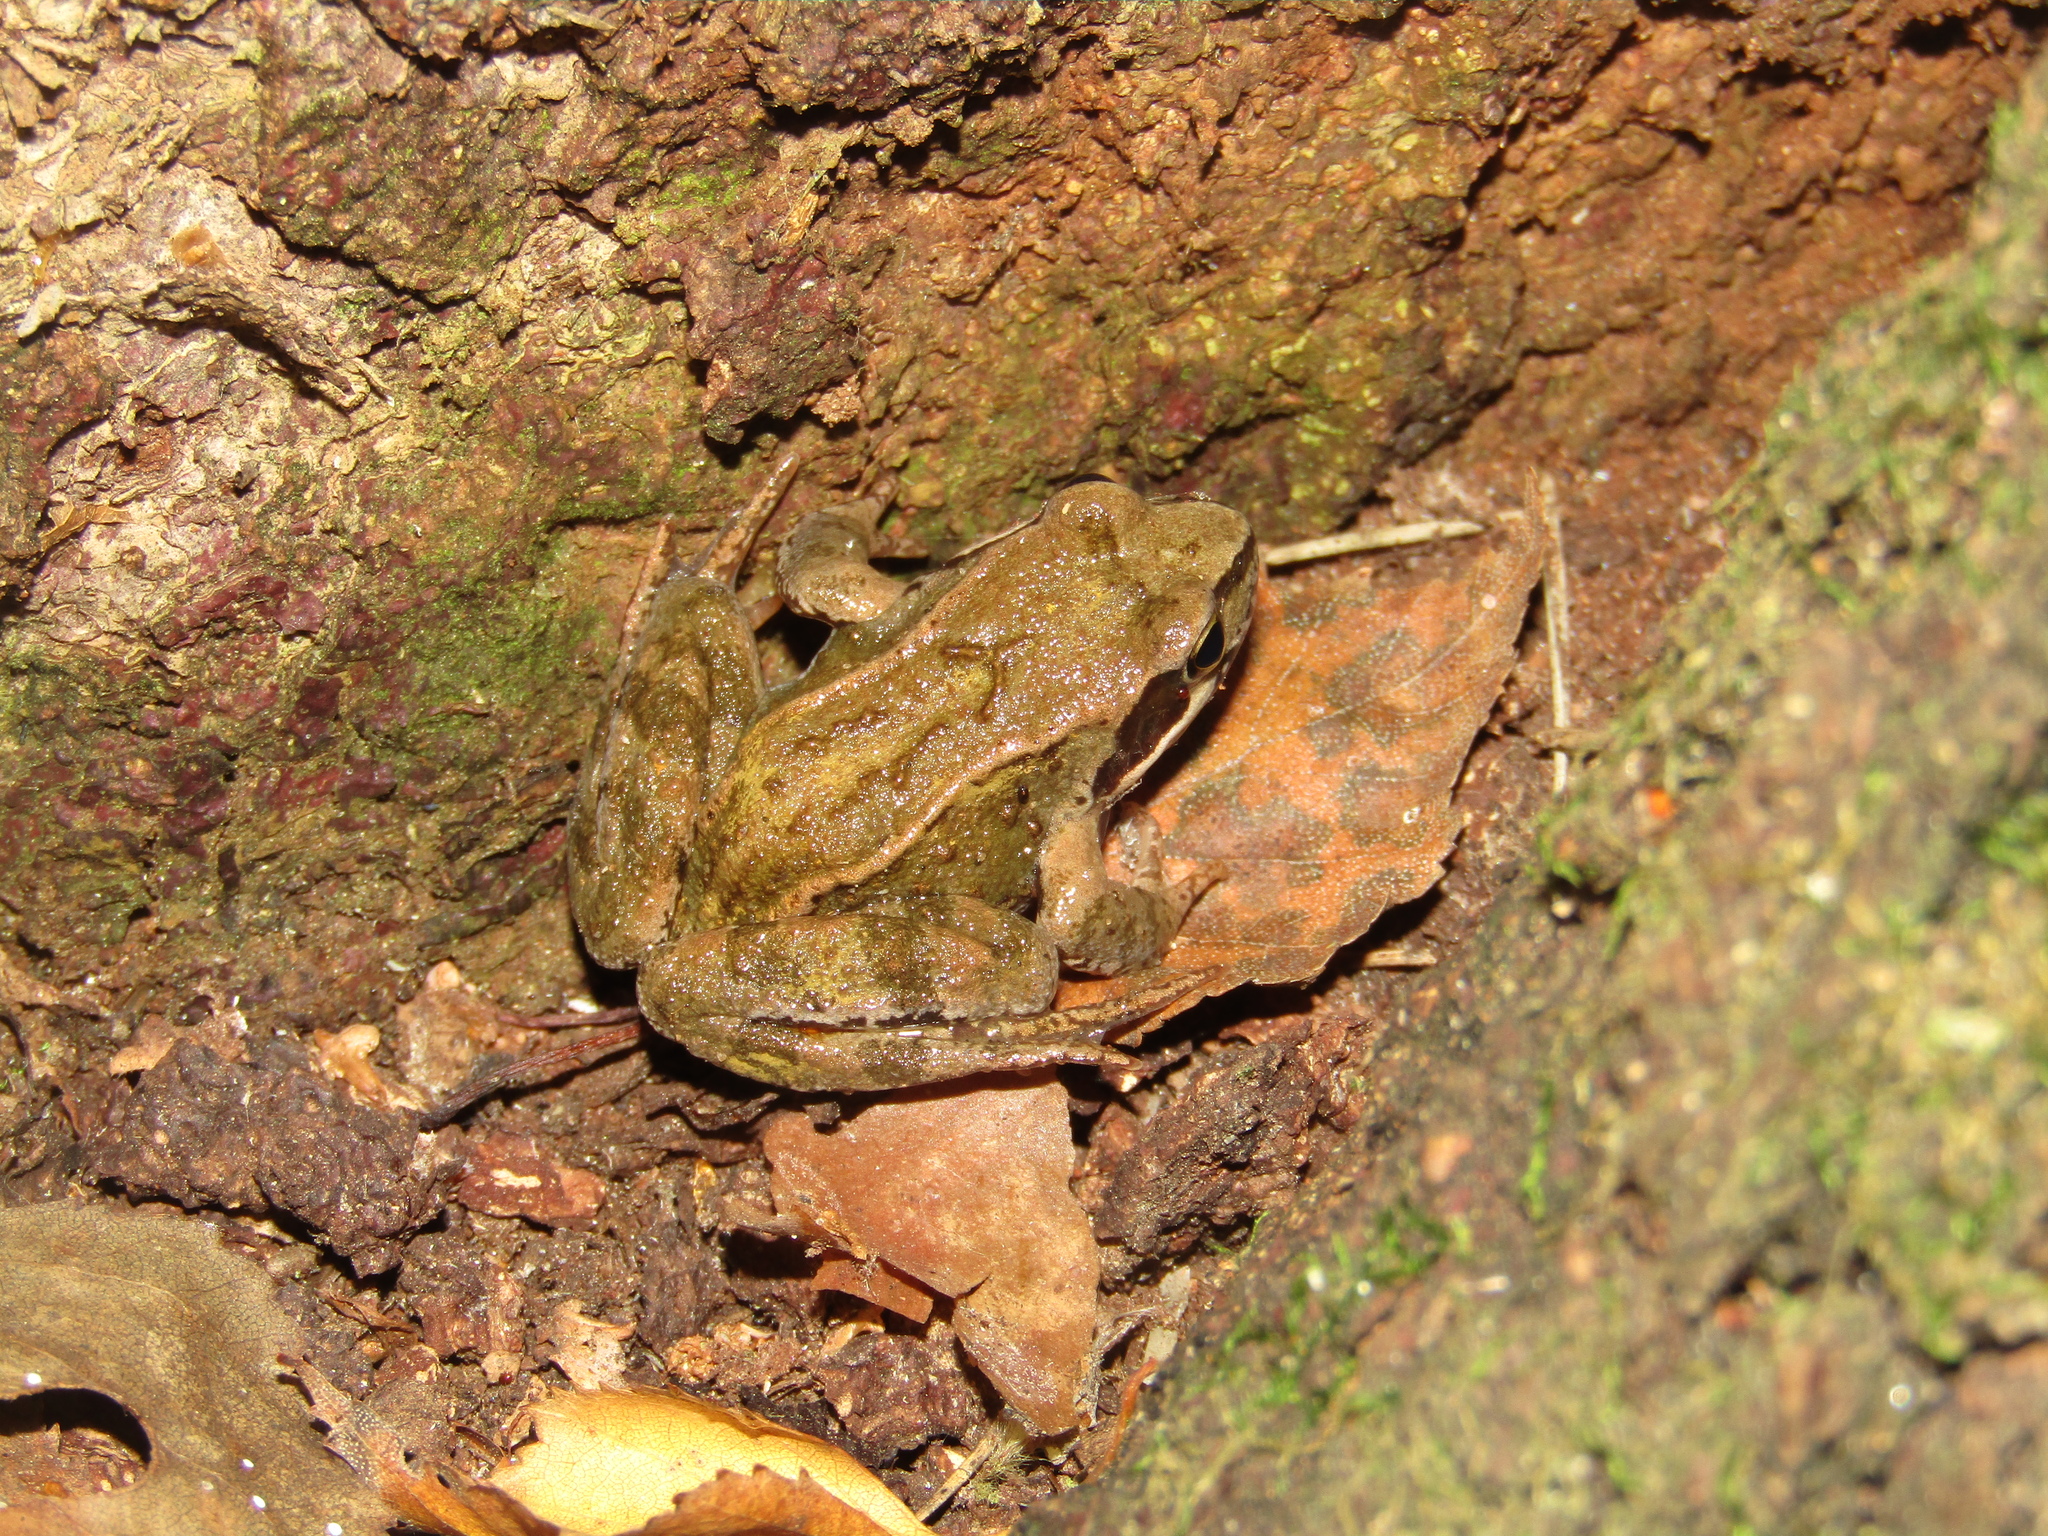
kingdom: Animalia
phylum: Chordata
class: Amphibia
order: Anura
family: Ranidae
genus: Rana
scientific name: Rana temporaria
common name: Common frog
